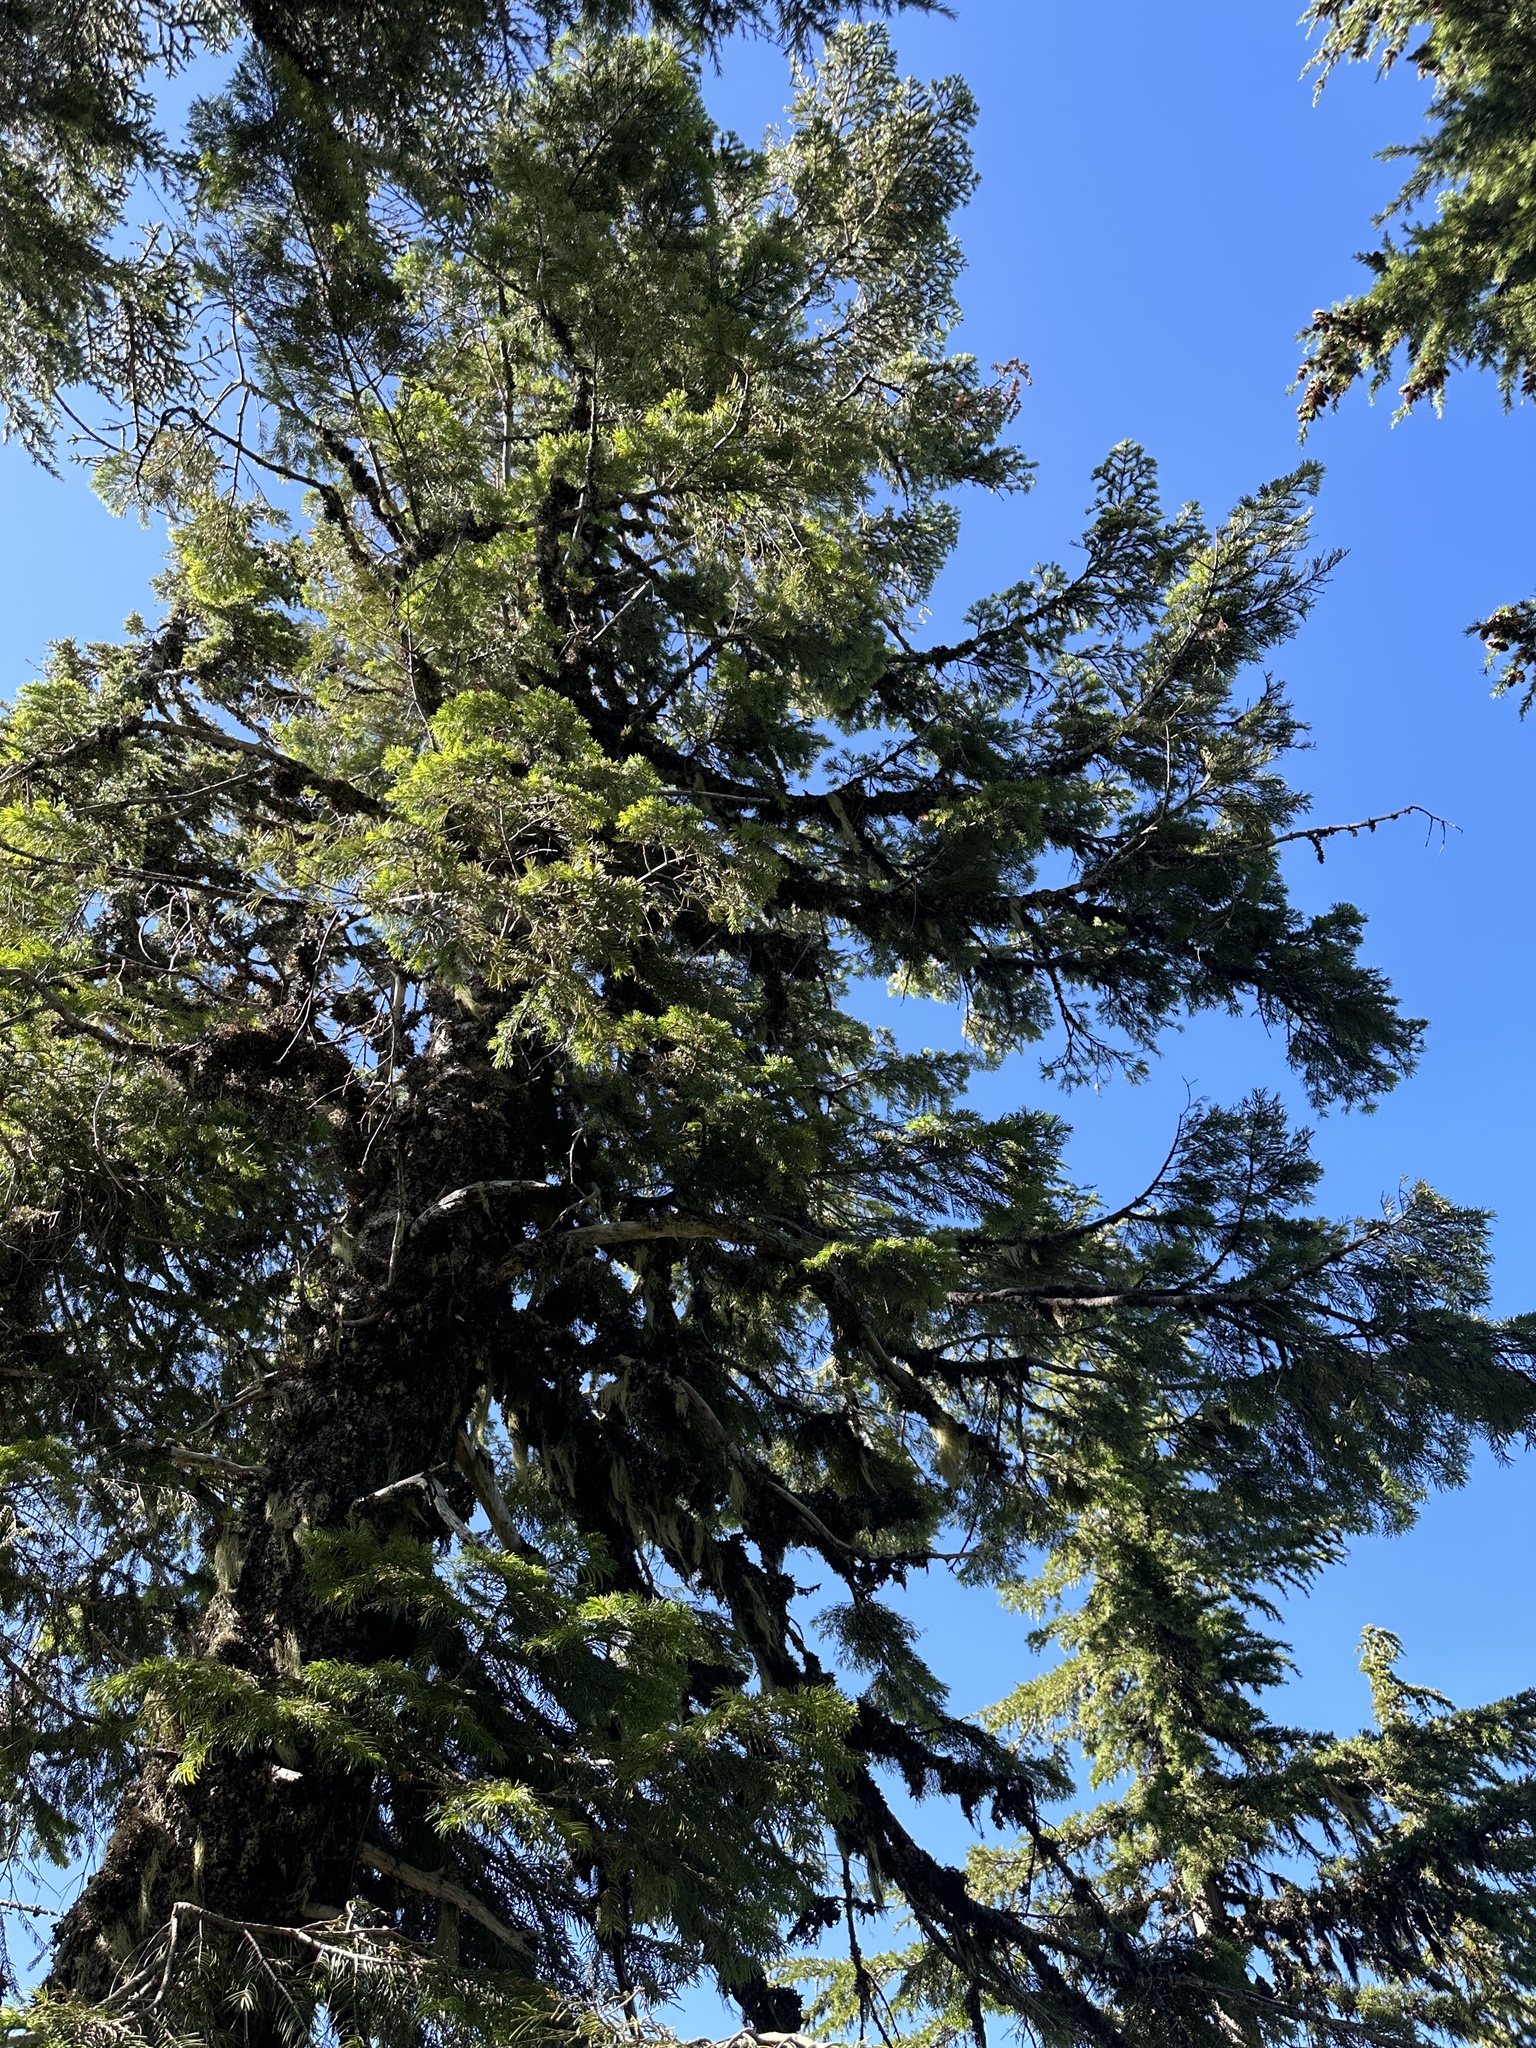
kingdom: Plantae
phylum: Tracheophyta
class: Pinopsida
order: Pinales
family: Pinaceae
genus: Abies
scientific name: Abies grandis
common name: Giant fir
